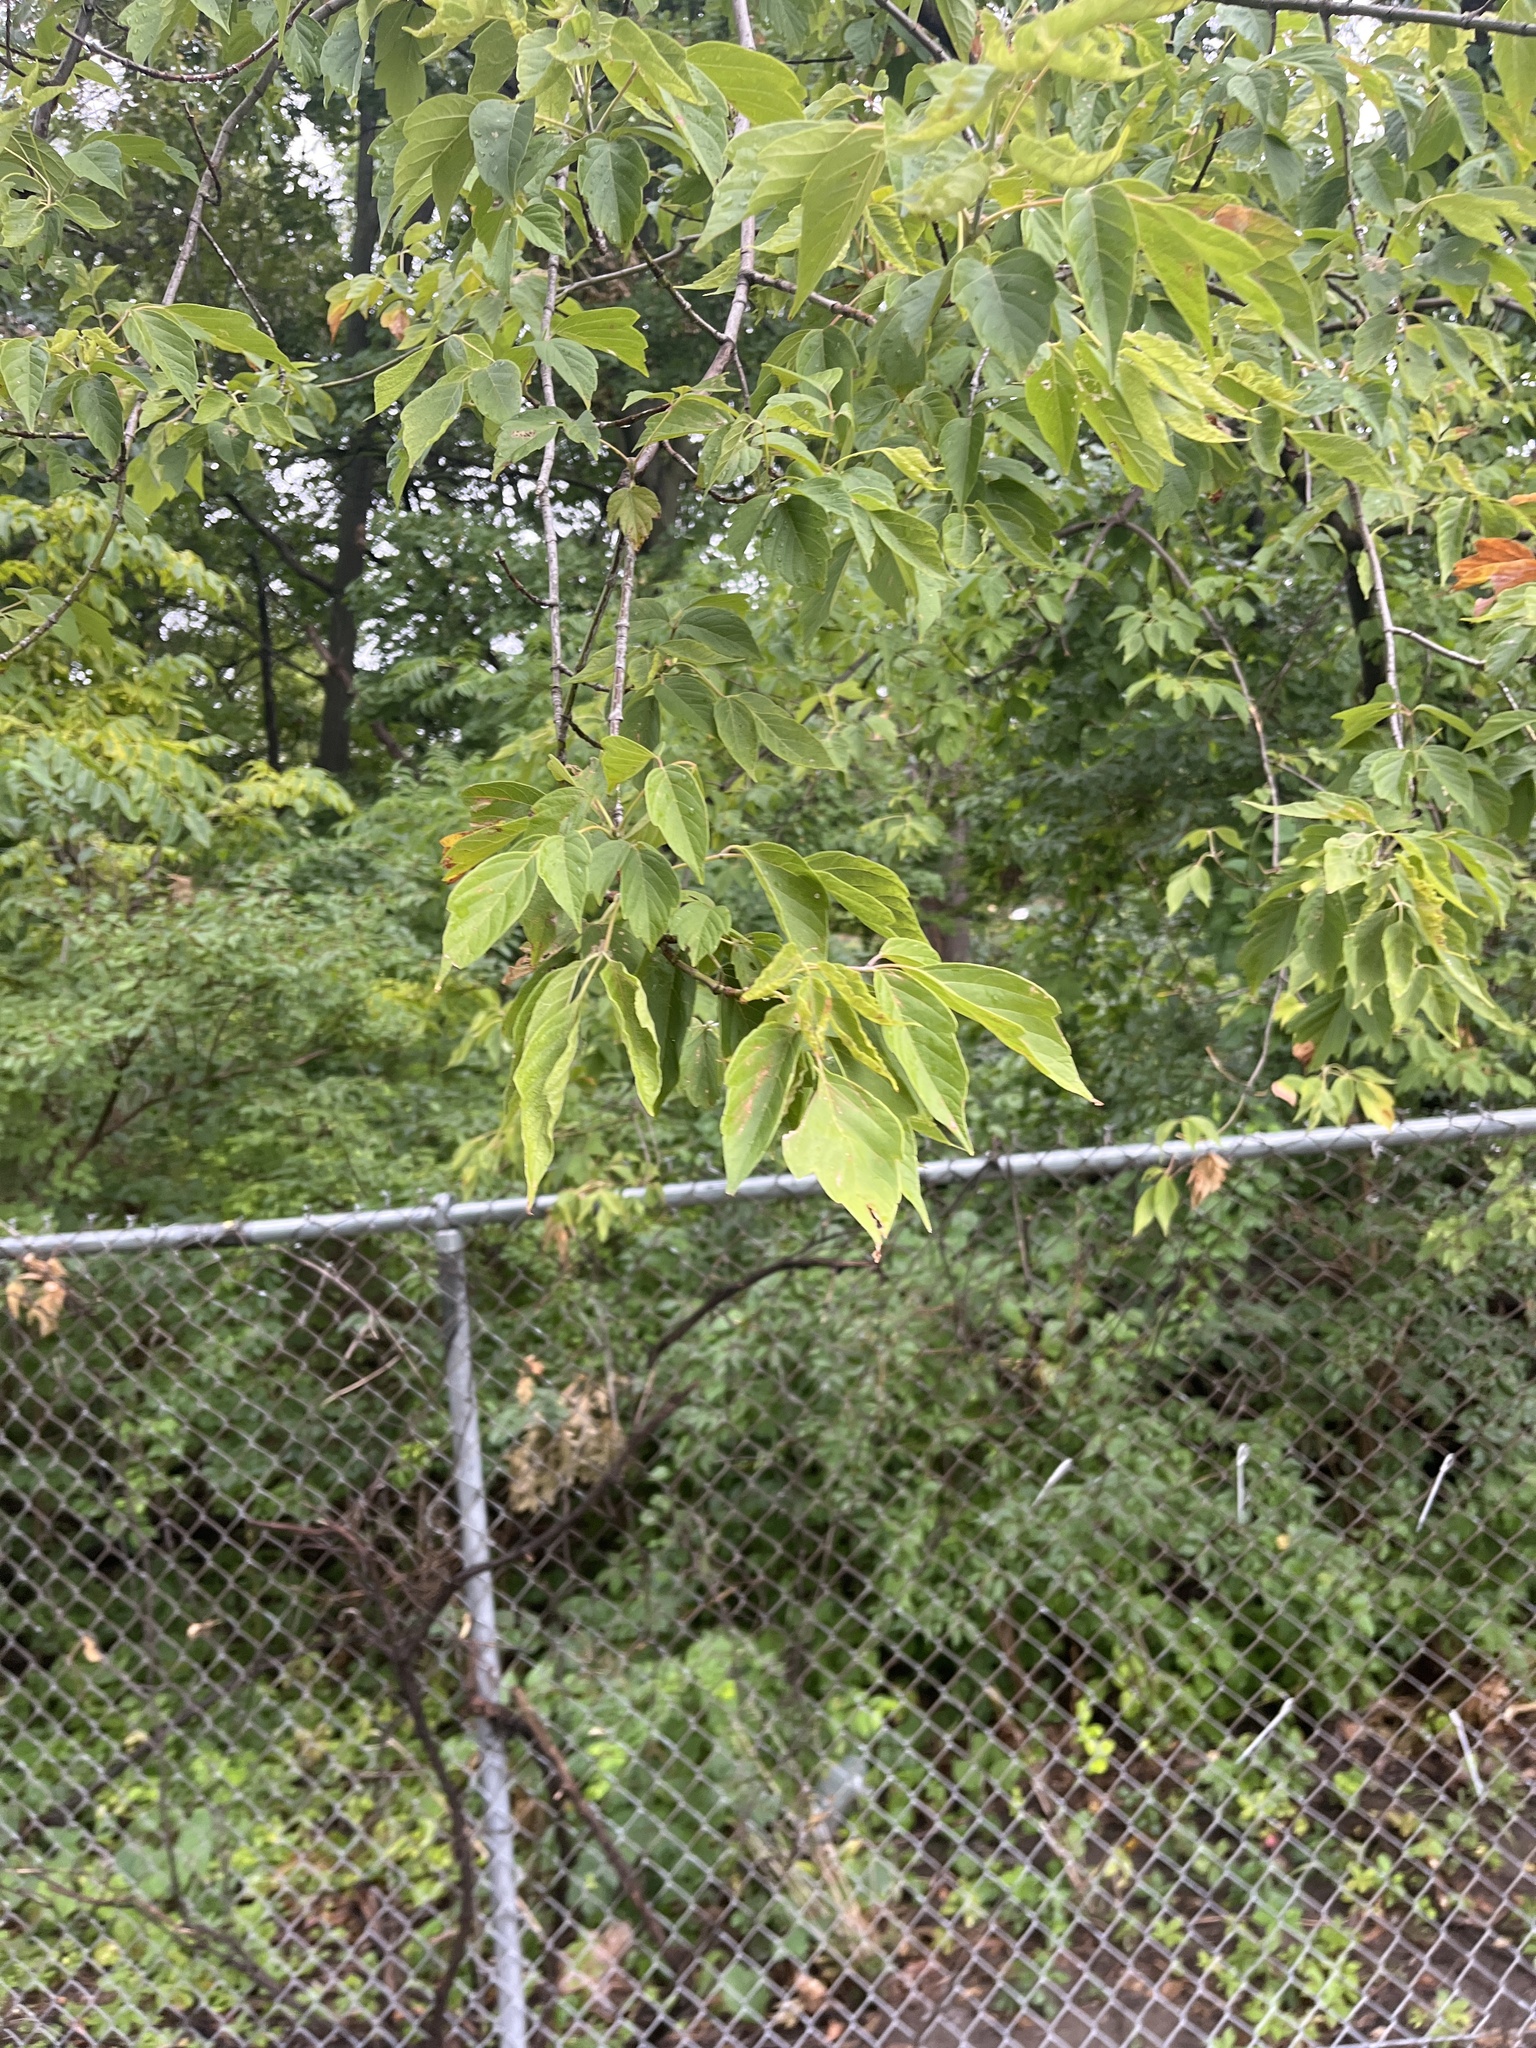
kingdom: Plantae
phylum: Tracheophyta
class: Magnoliopsida
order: Sapindales
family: Sapindaceae
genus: Acer
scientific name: Acer negundo
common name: Ashleaf maple
